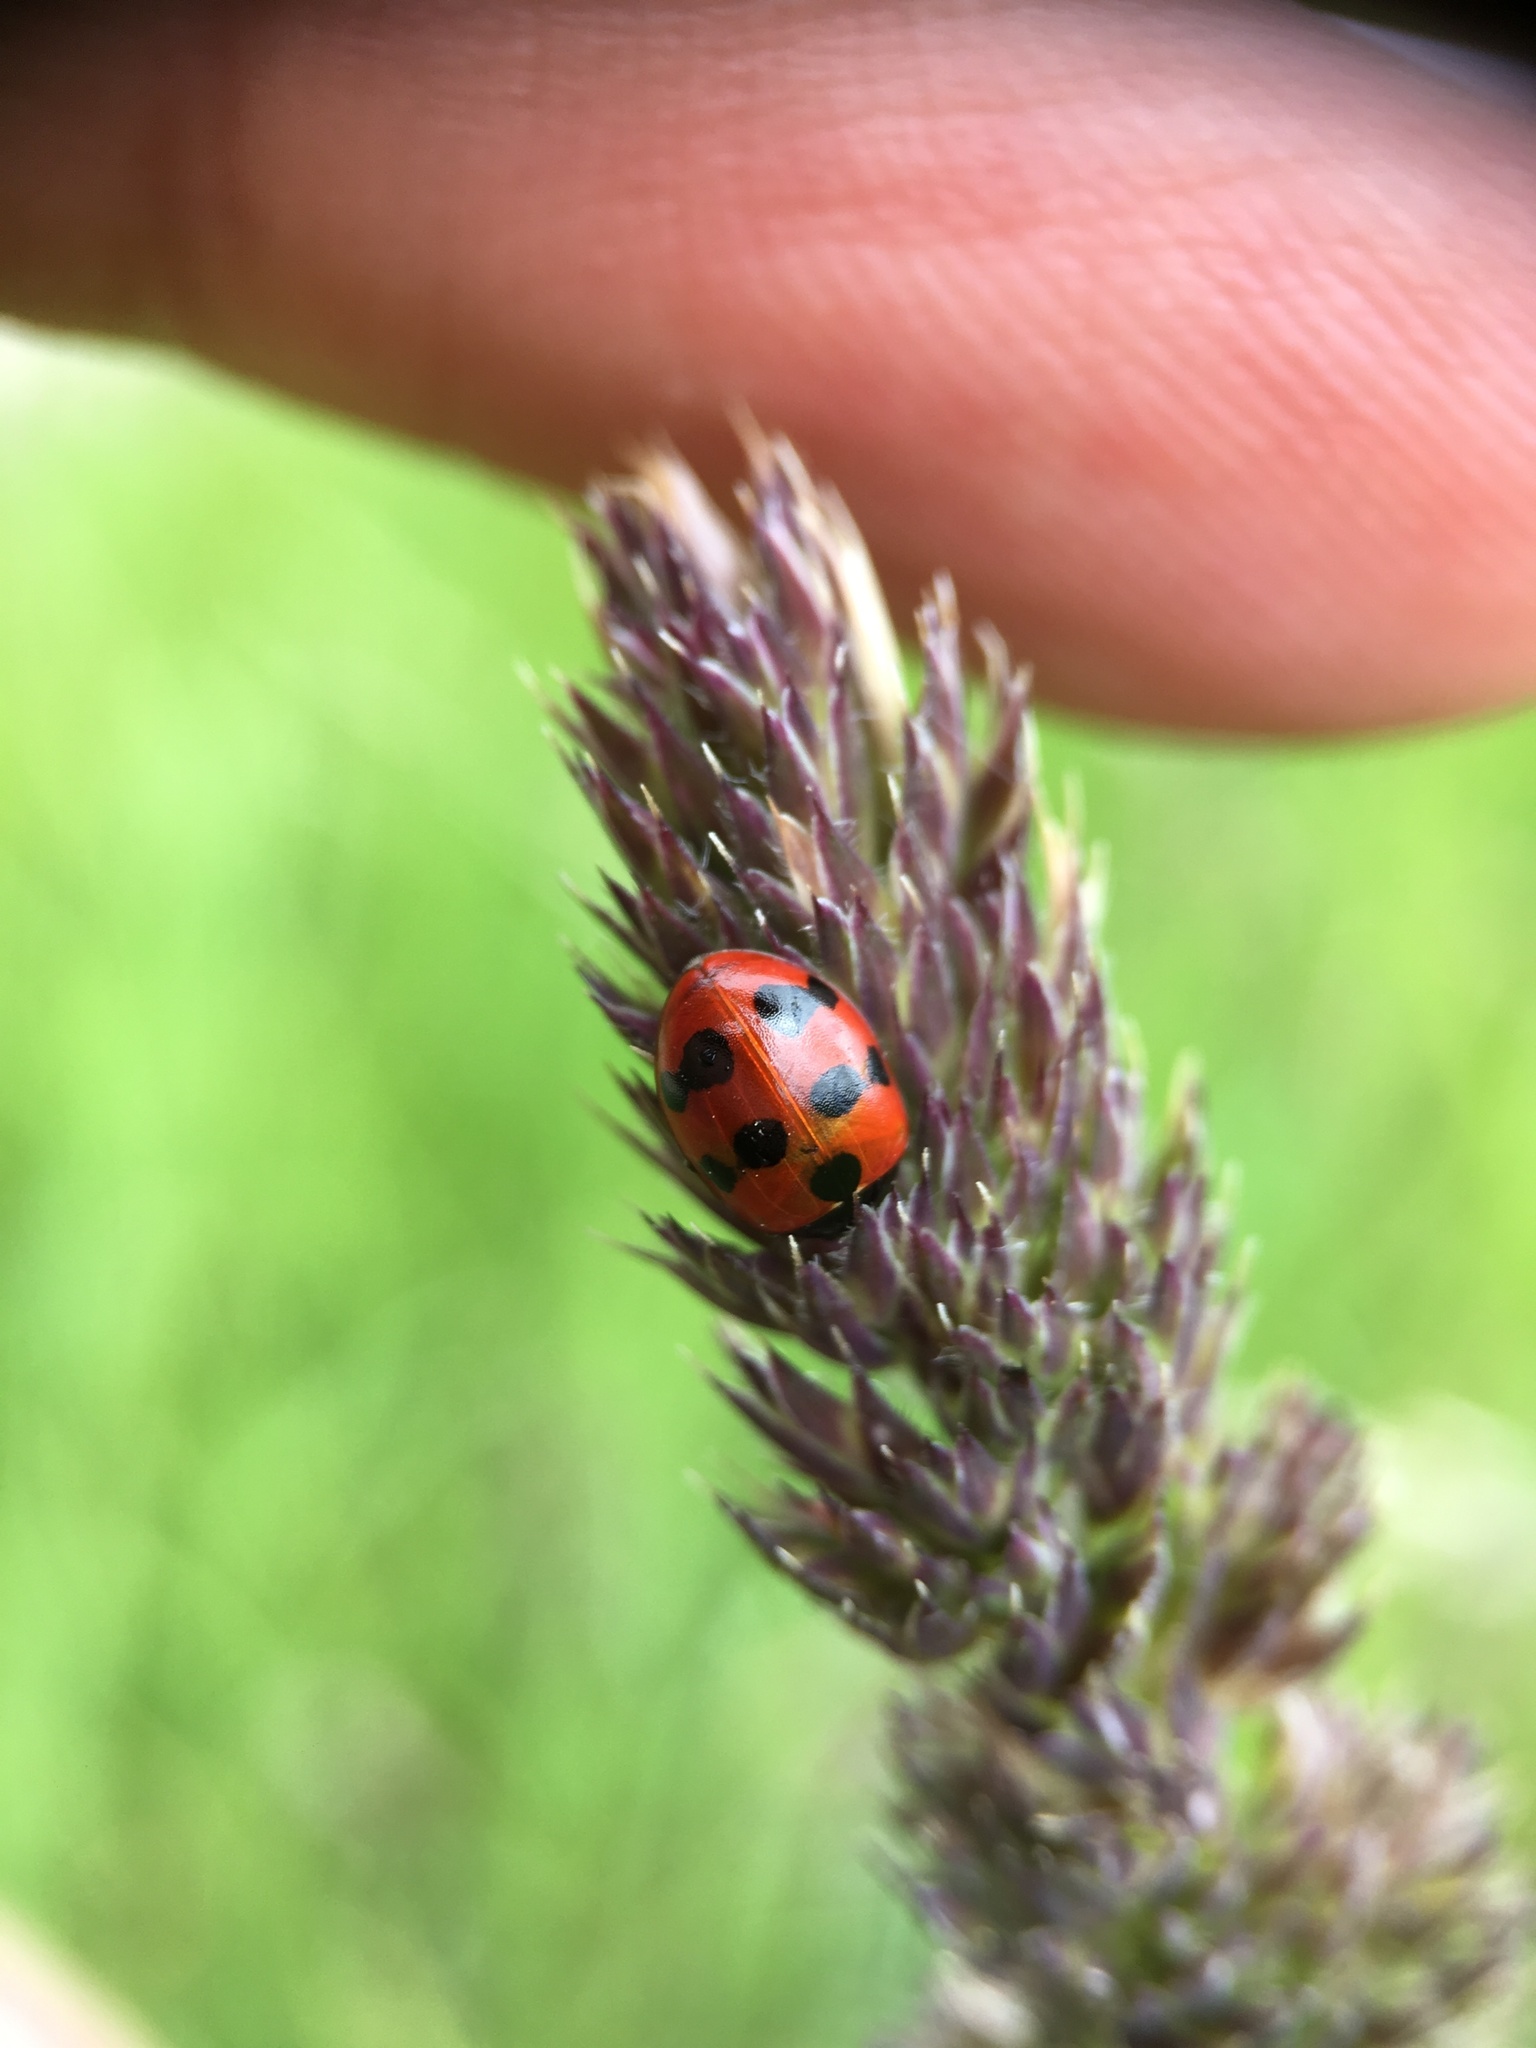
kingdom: Animalia
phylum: Arthropoda
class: Insecta
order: Coleoptera
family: Coccinellidae
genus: Coccinella
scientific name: Coccinella undecimpunctata
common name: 11-spot ladybird
